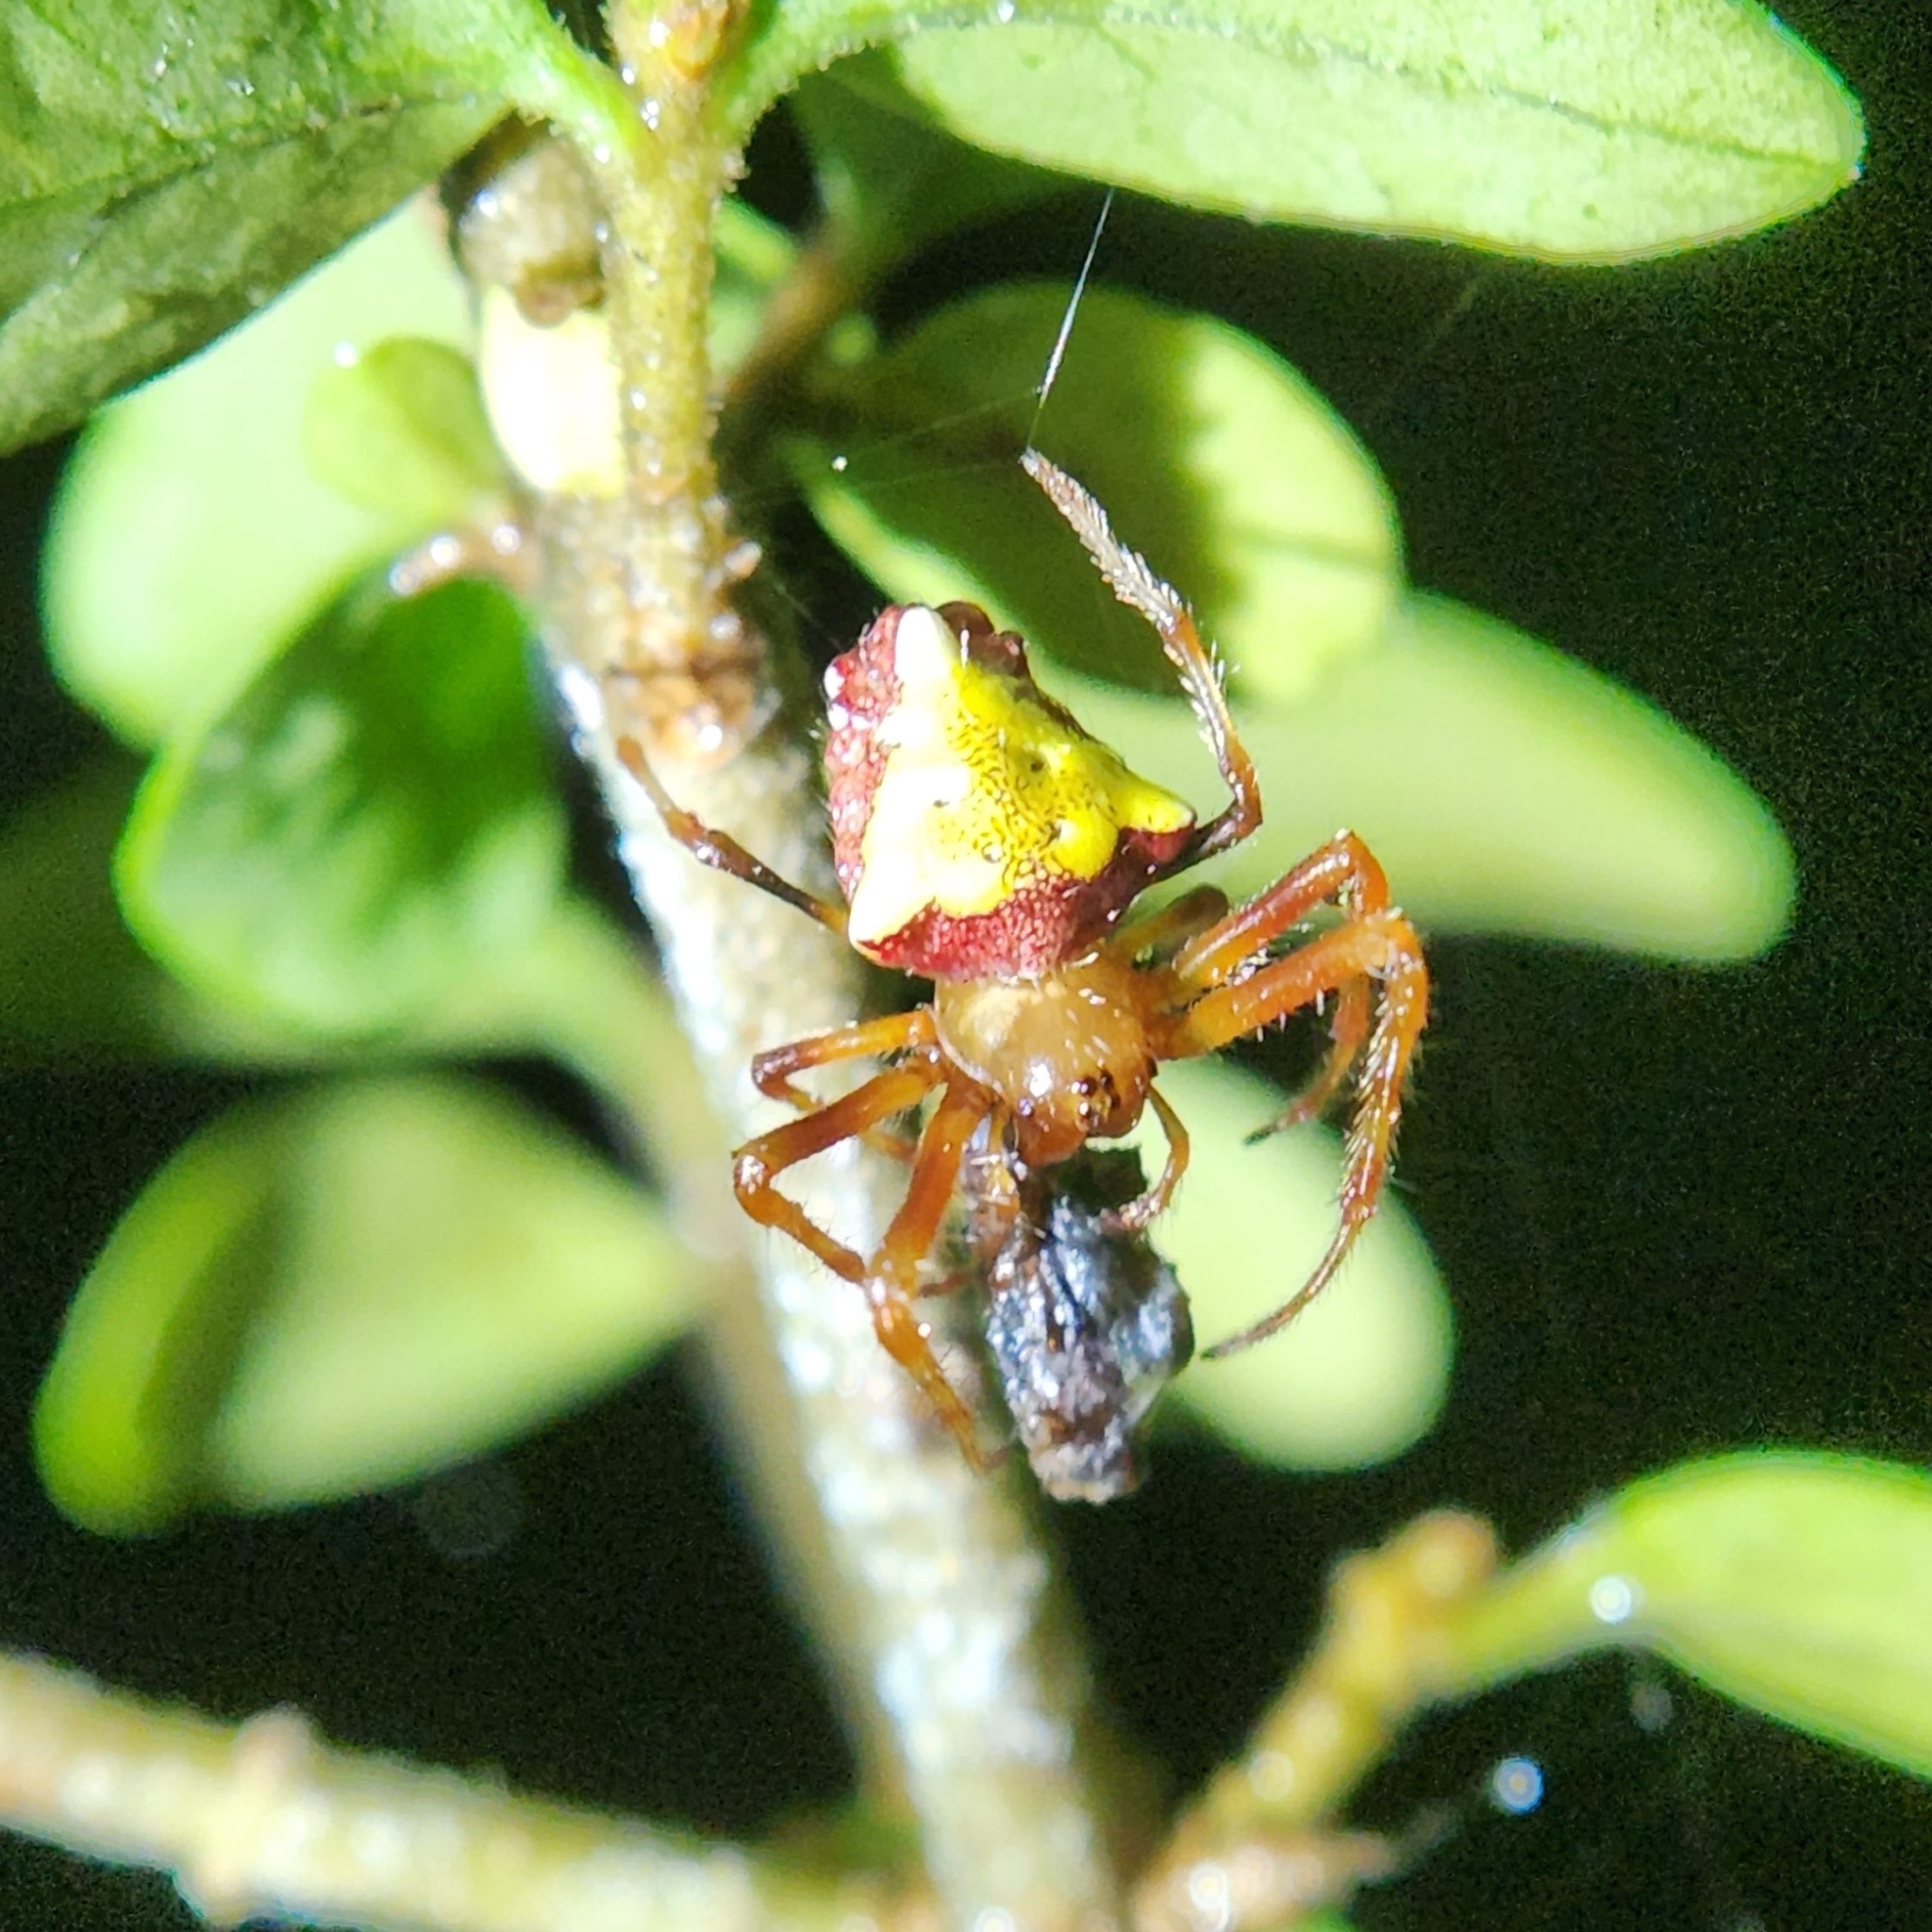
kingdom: Animalia
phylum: Arthropoda
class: Arachnida
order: Araneae
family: Araneidae
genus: Verrucosa
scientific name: Verrucosa arenata
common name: Orb weavers
